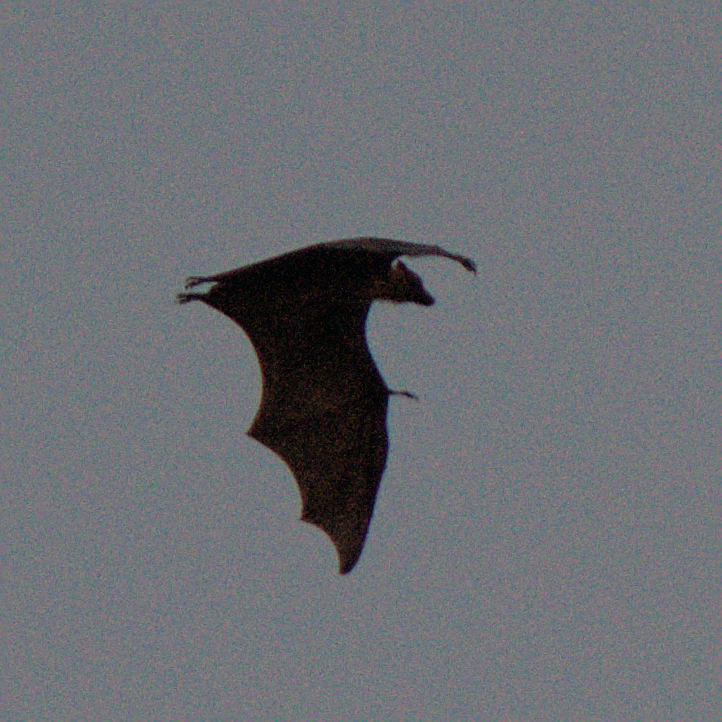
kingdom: Animalia
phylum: Chordata
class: Mammalia
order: Chiroptera
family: Pteropodidae
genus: Pteropus
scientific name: Pteropus vampyrus
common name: Large flying fox
